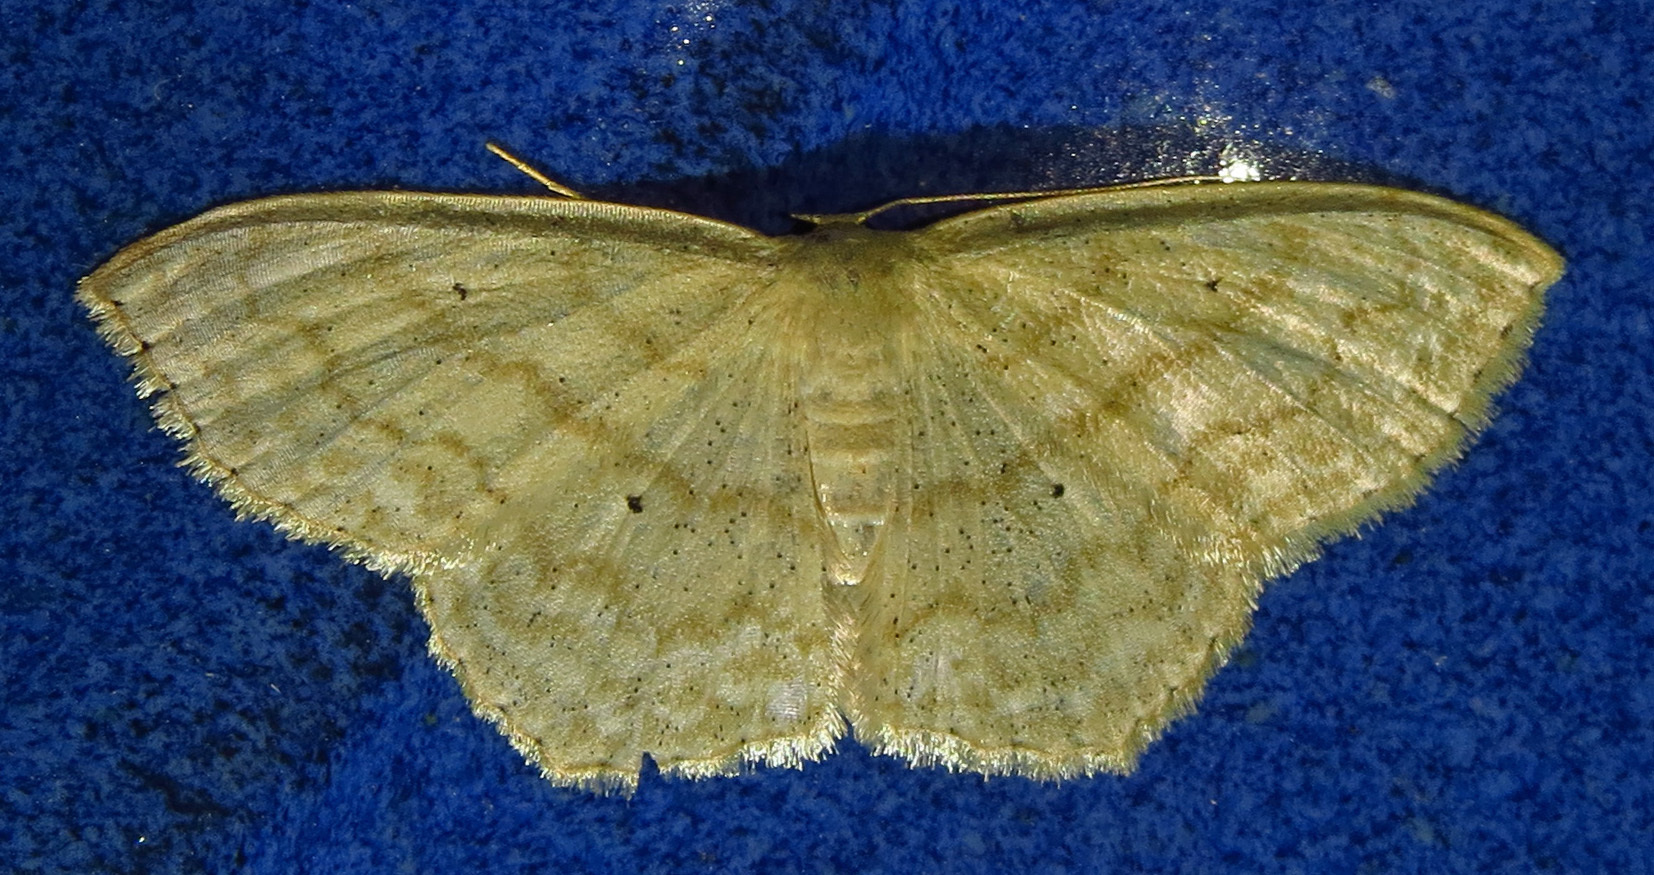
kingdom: Animalia
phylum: Arthropoda
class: Insecta
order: Lepidoptera
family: Geometridae
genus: Scopula
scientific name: Scopula limboundata
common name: Large lace border
